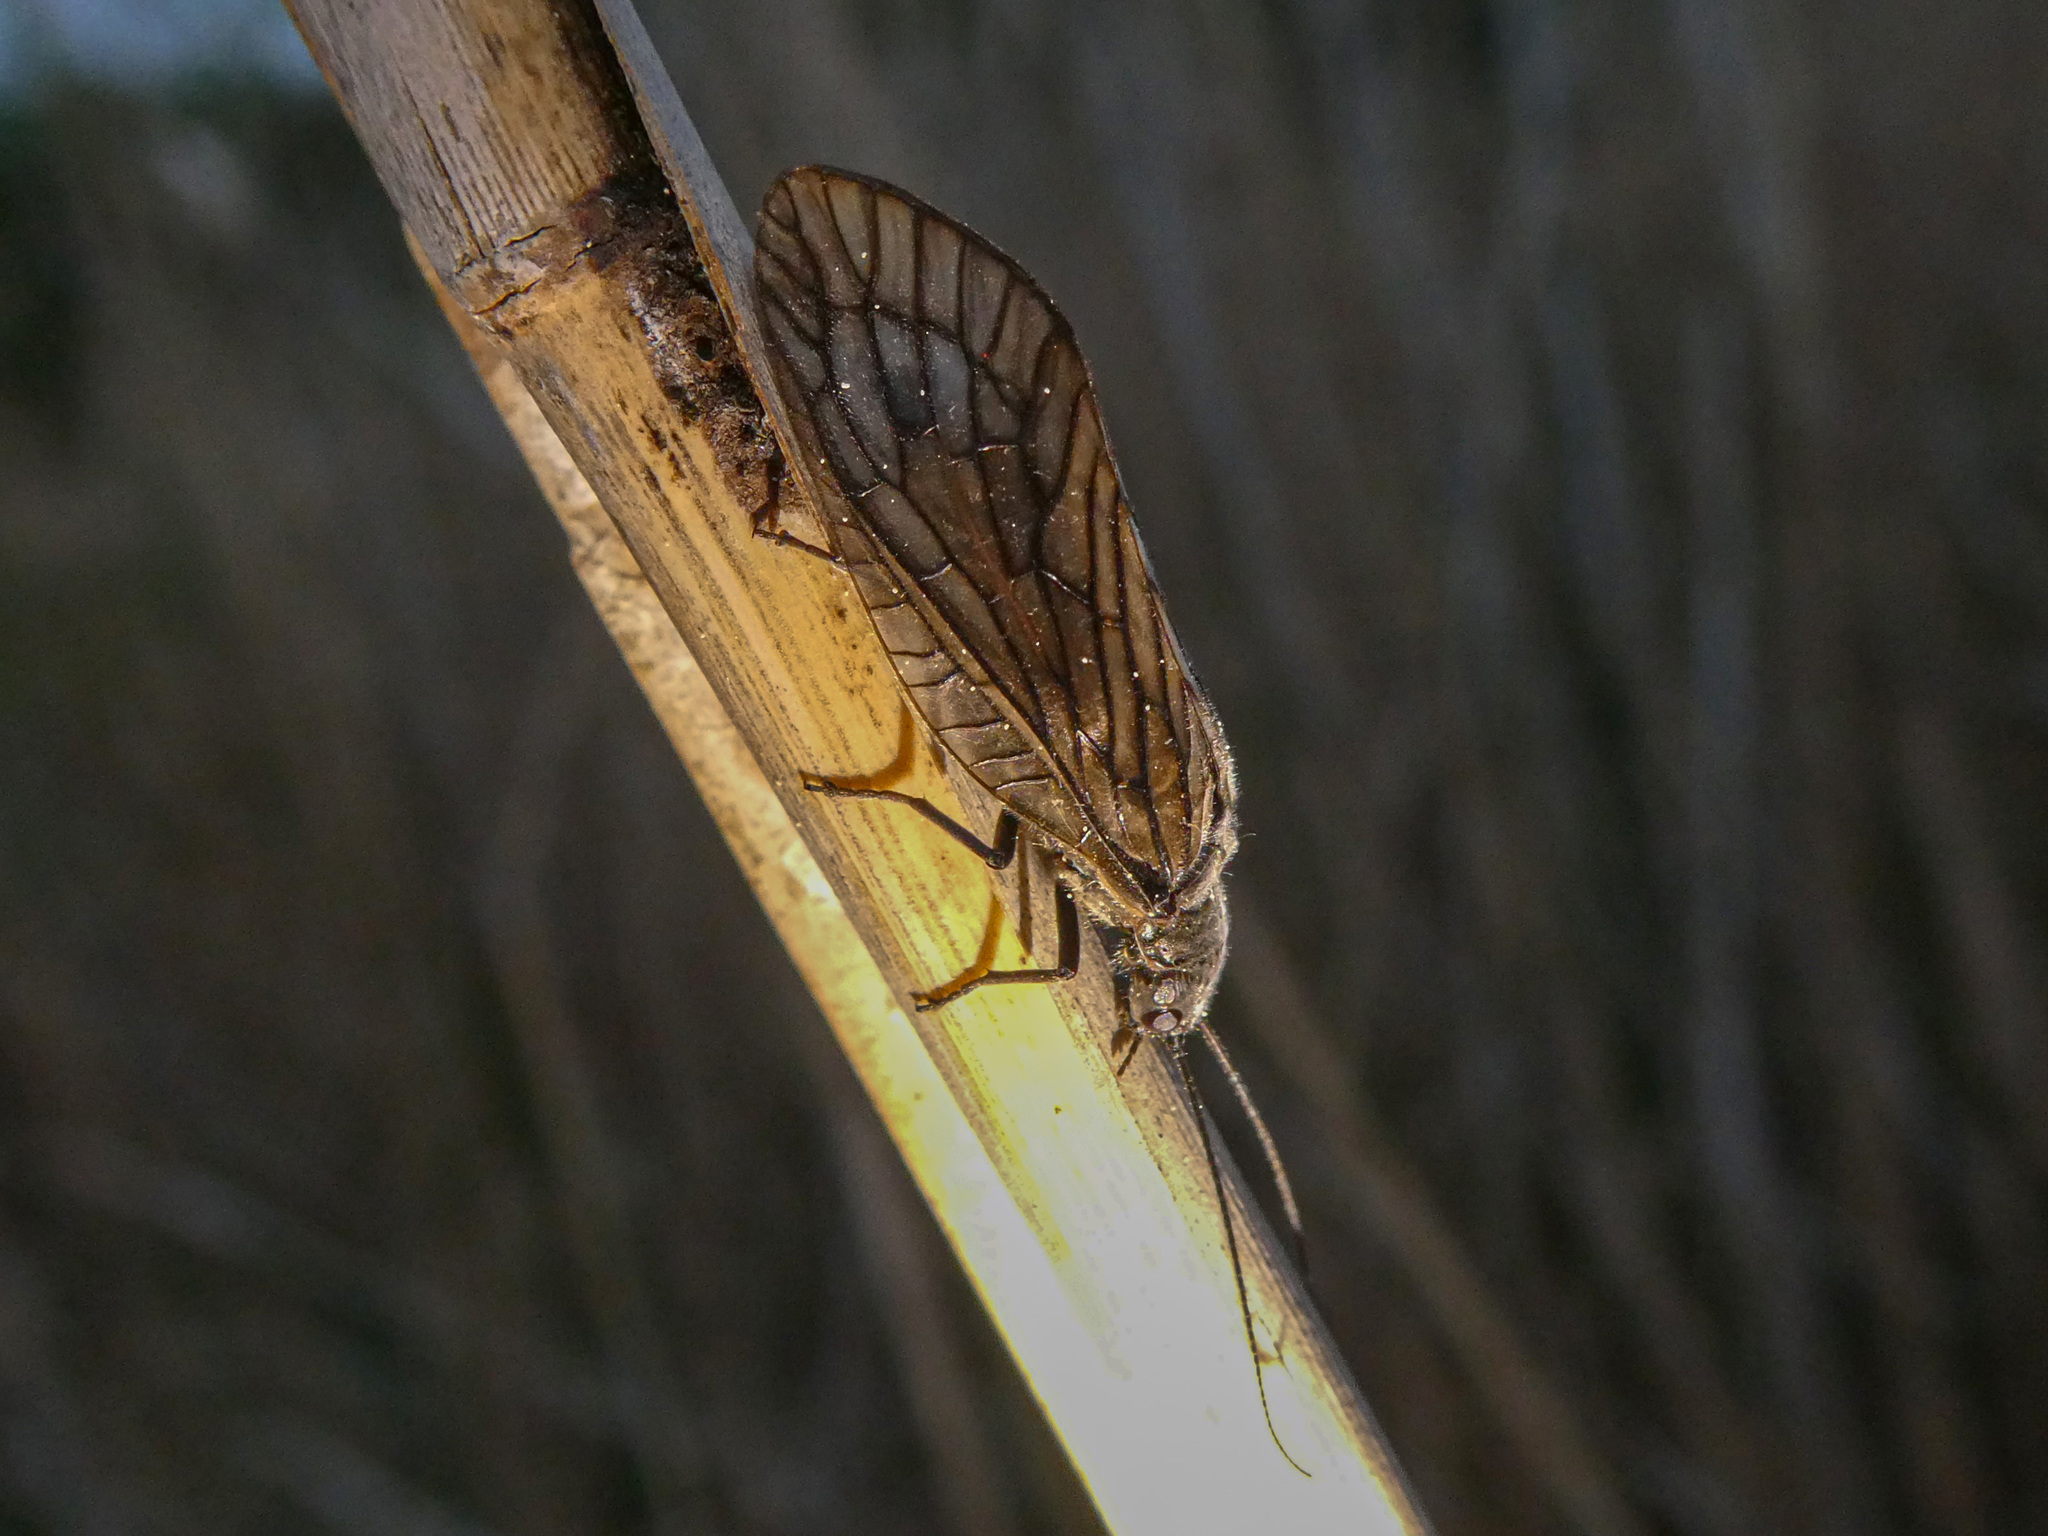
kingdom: Animalia
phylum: Arthropoda
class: Insecta
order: Megaloptera
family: Sialidae
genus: Sialis
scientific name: Sialis
